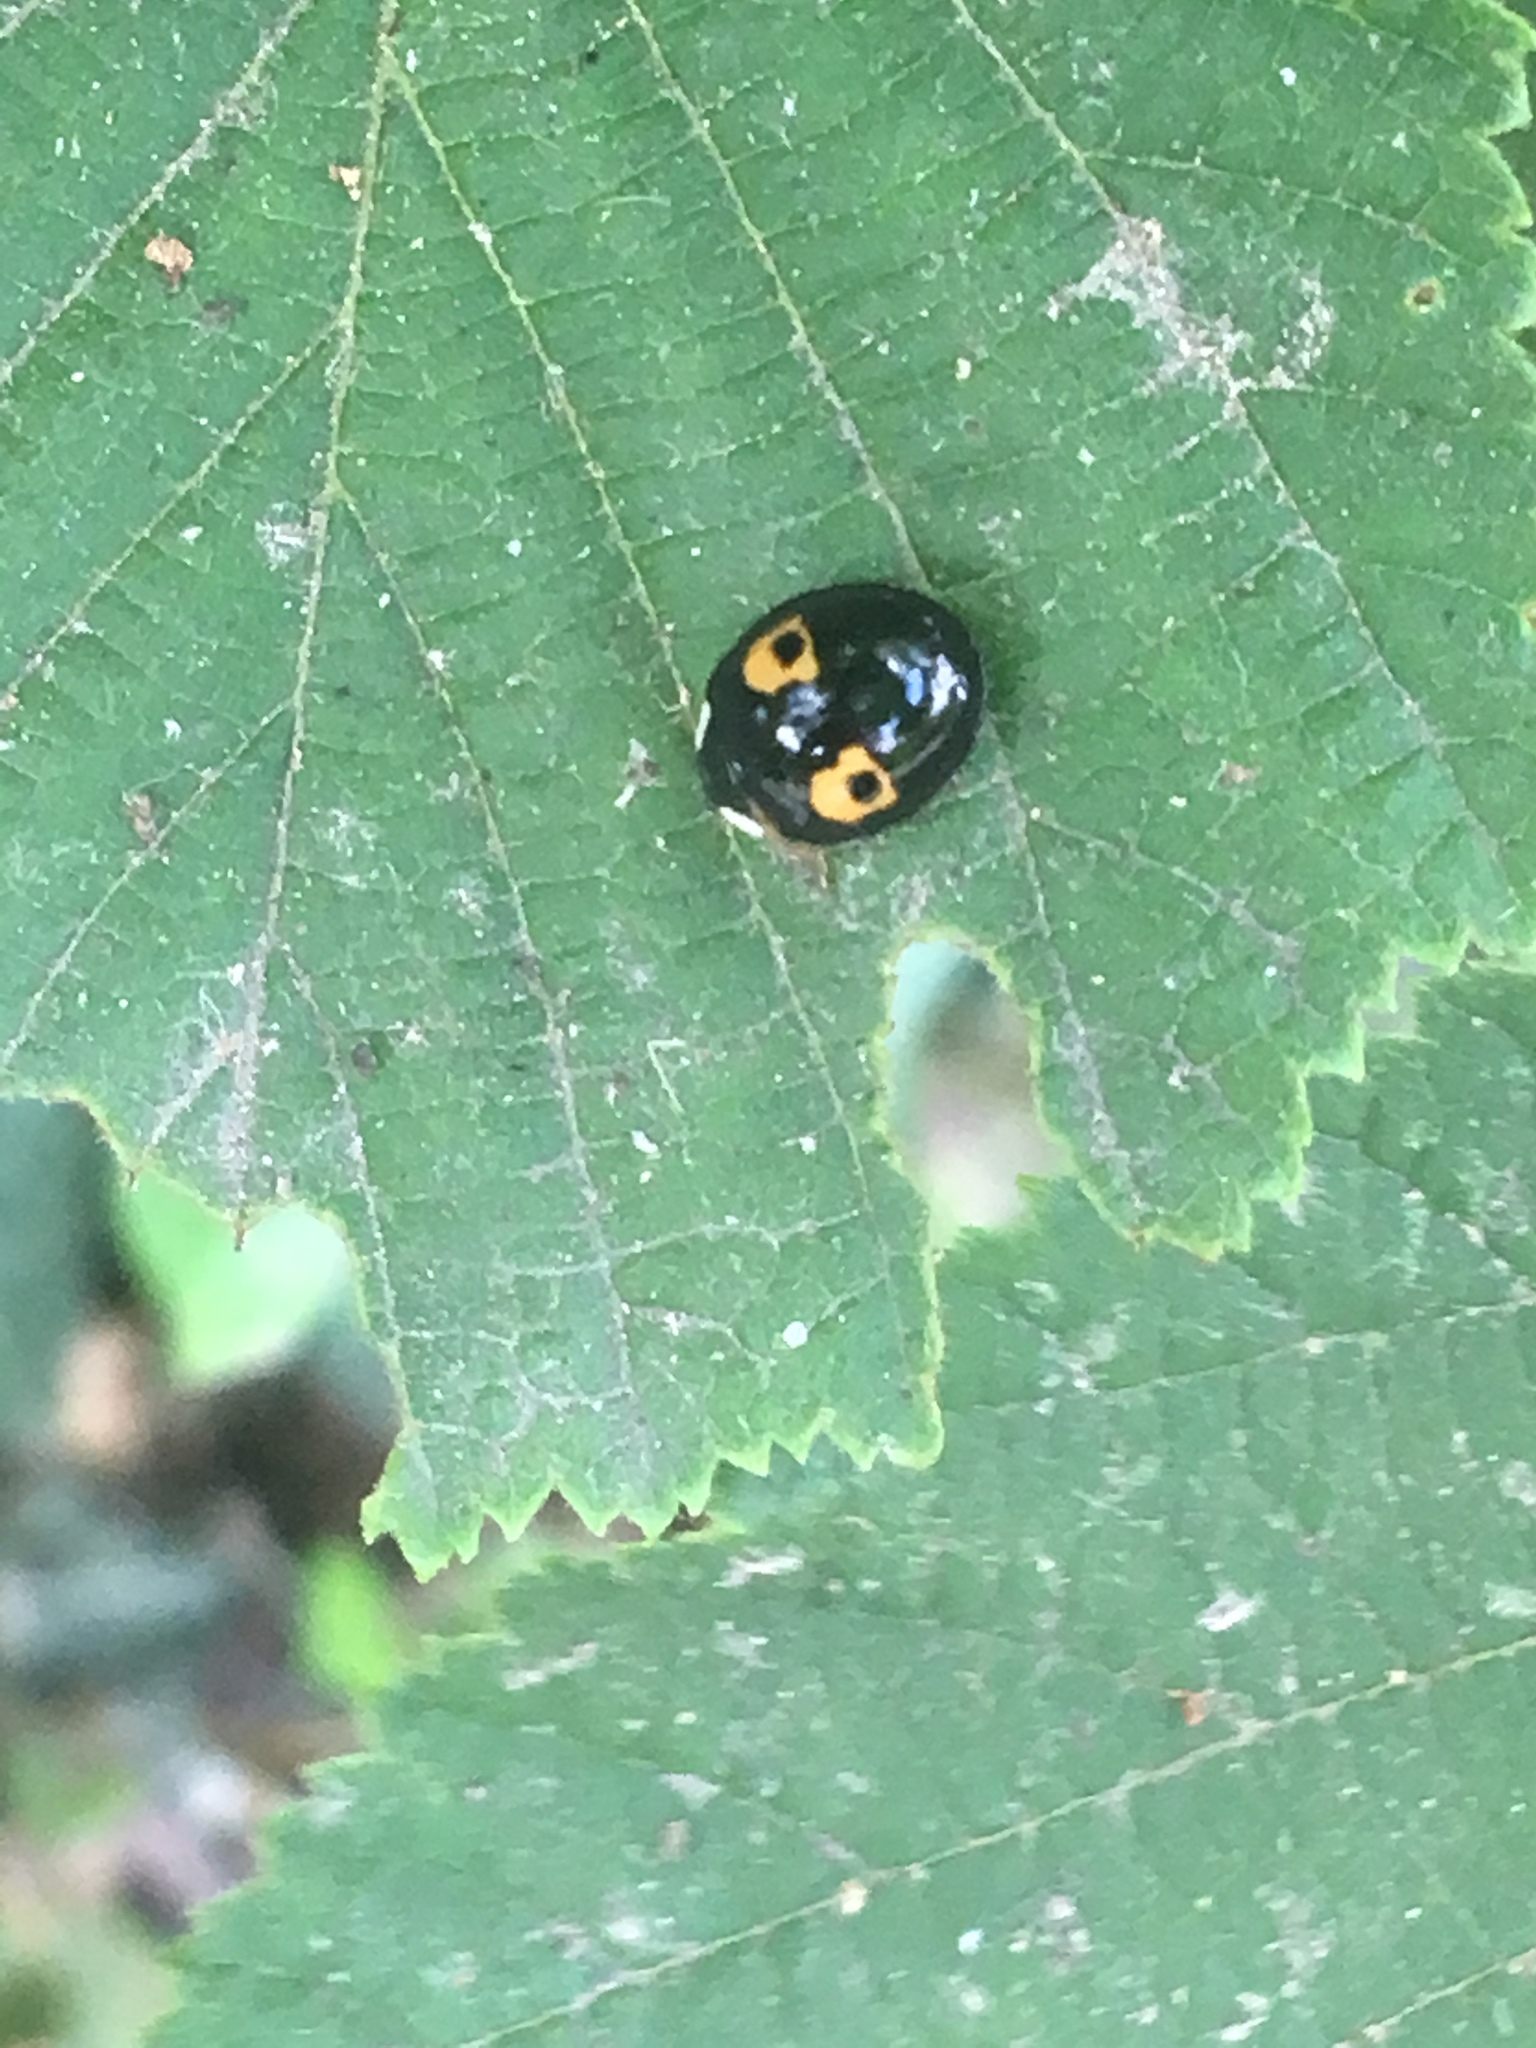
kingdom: Animalia
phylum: Arthropoda
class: Insecta
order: Coleoptera
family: Coccinellidae
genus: Harmonia
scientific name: Harmonia axyridis
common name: Harlequin ladybird
